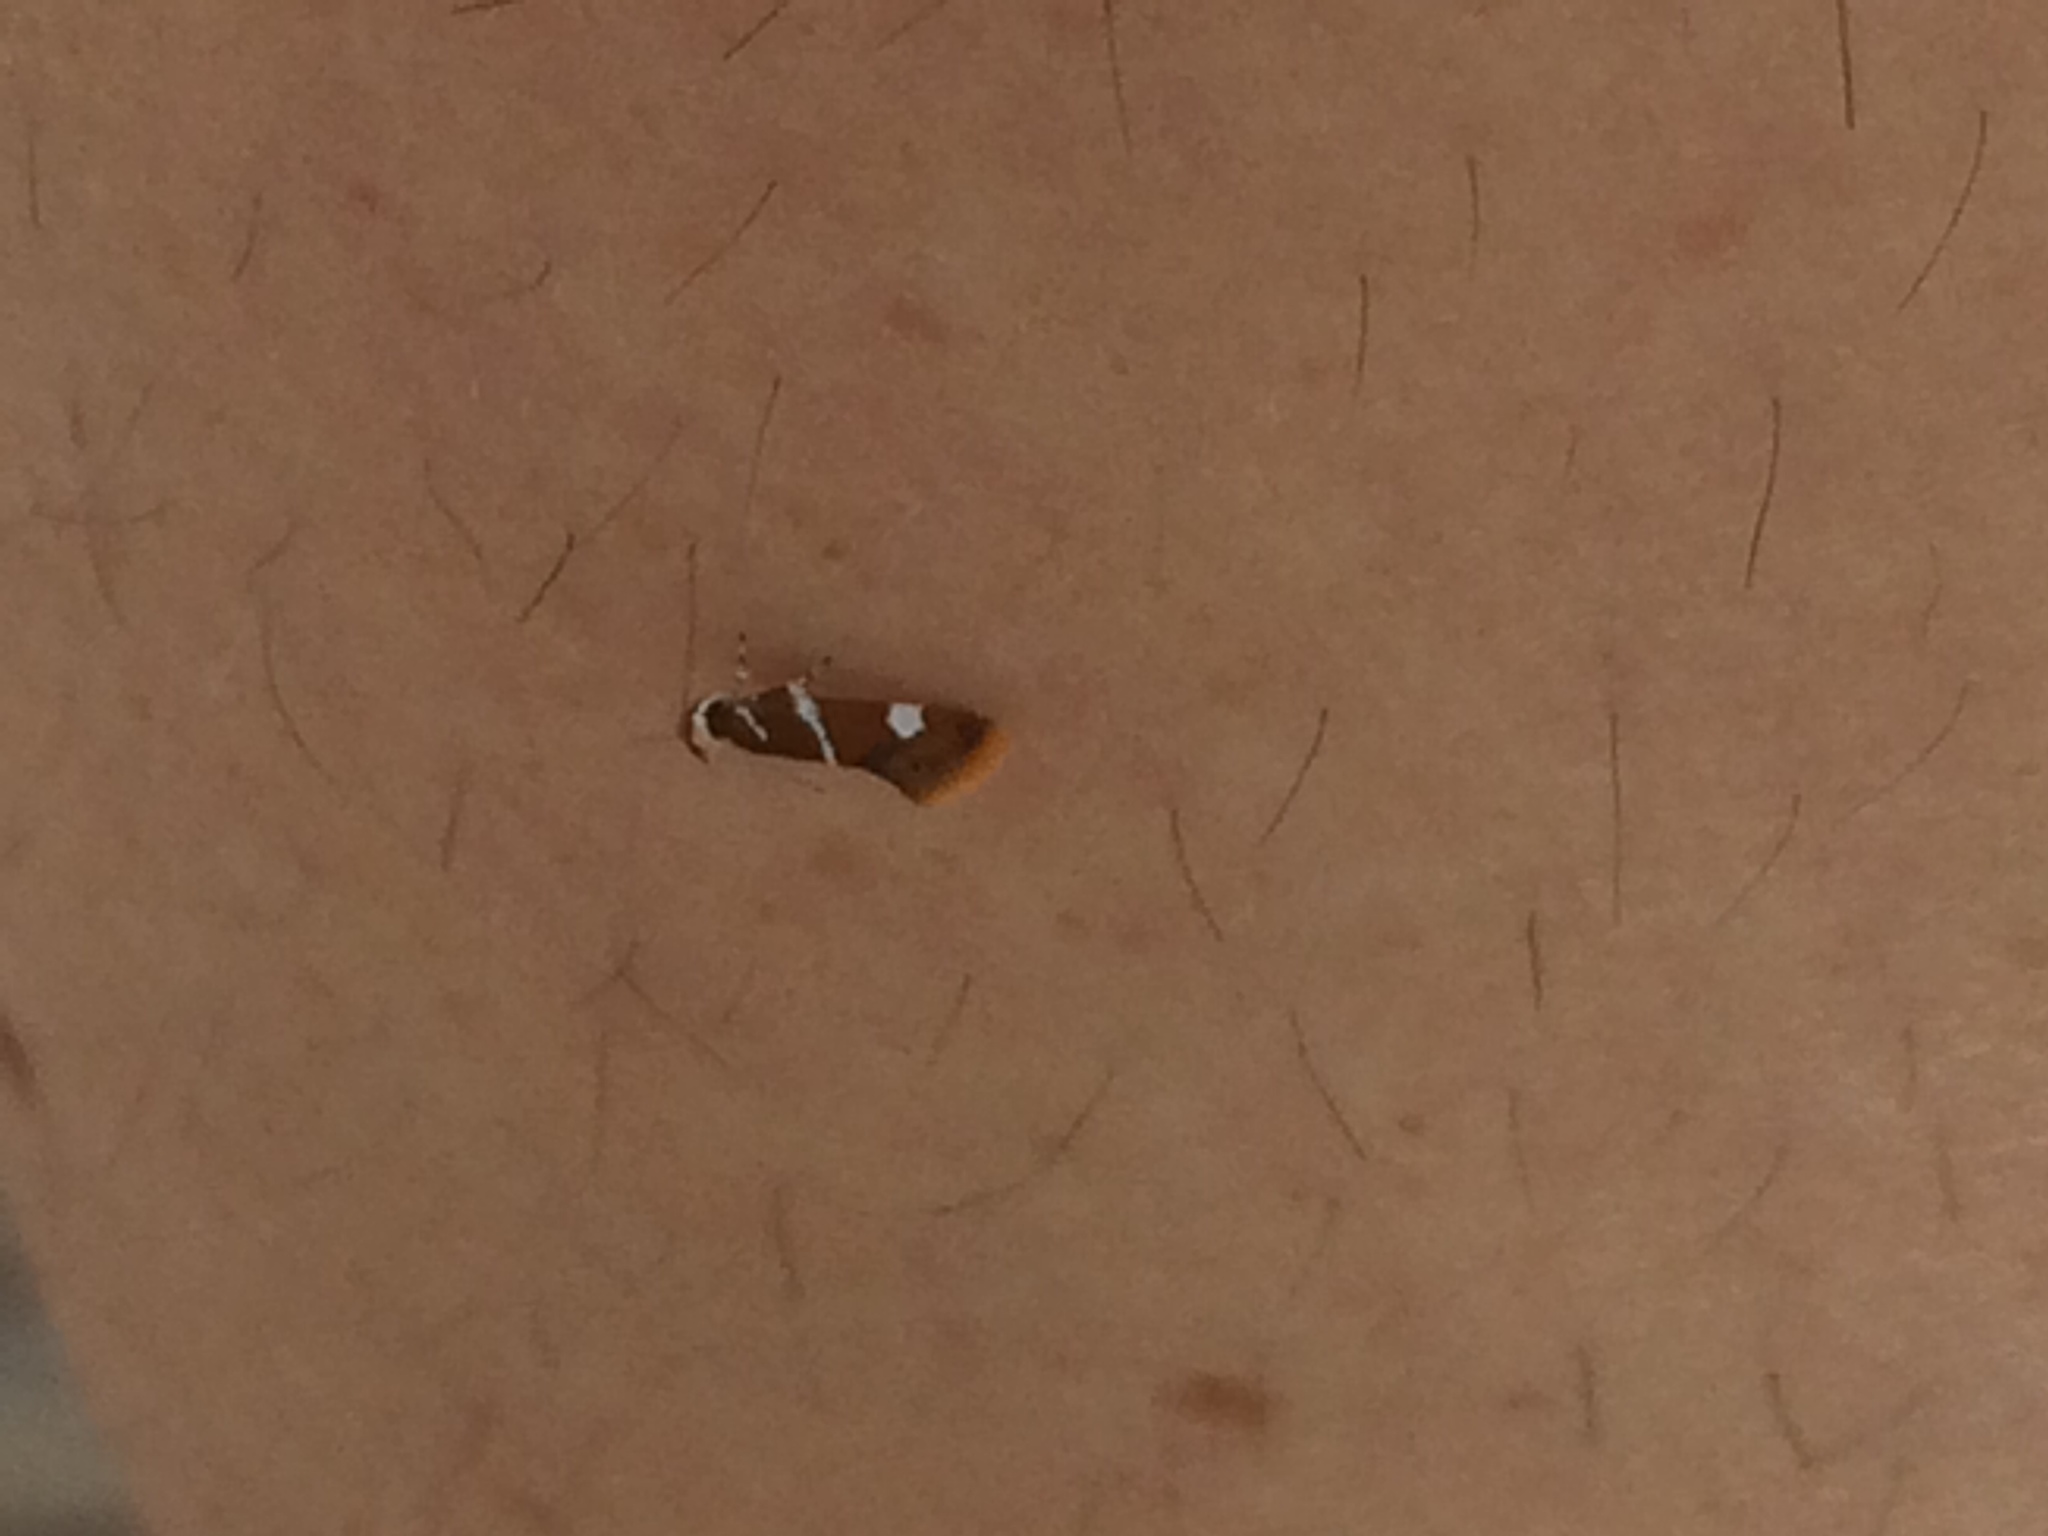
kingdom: Animalia
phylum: Arthropoda
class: Insecta
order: Lepidoptera
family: Oecophoridae
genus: Promalactis
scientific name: Promalactis suzukiella
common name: Moth
